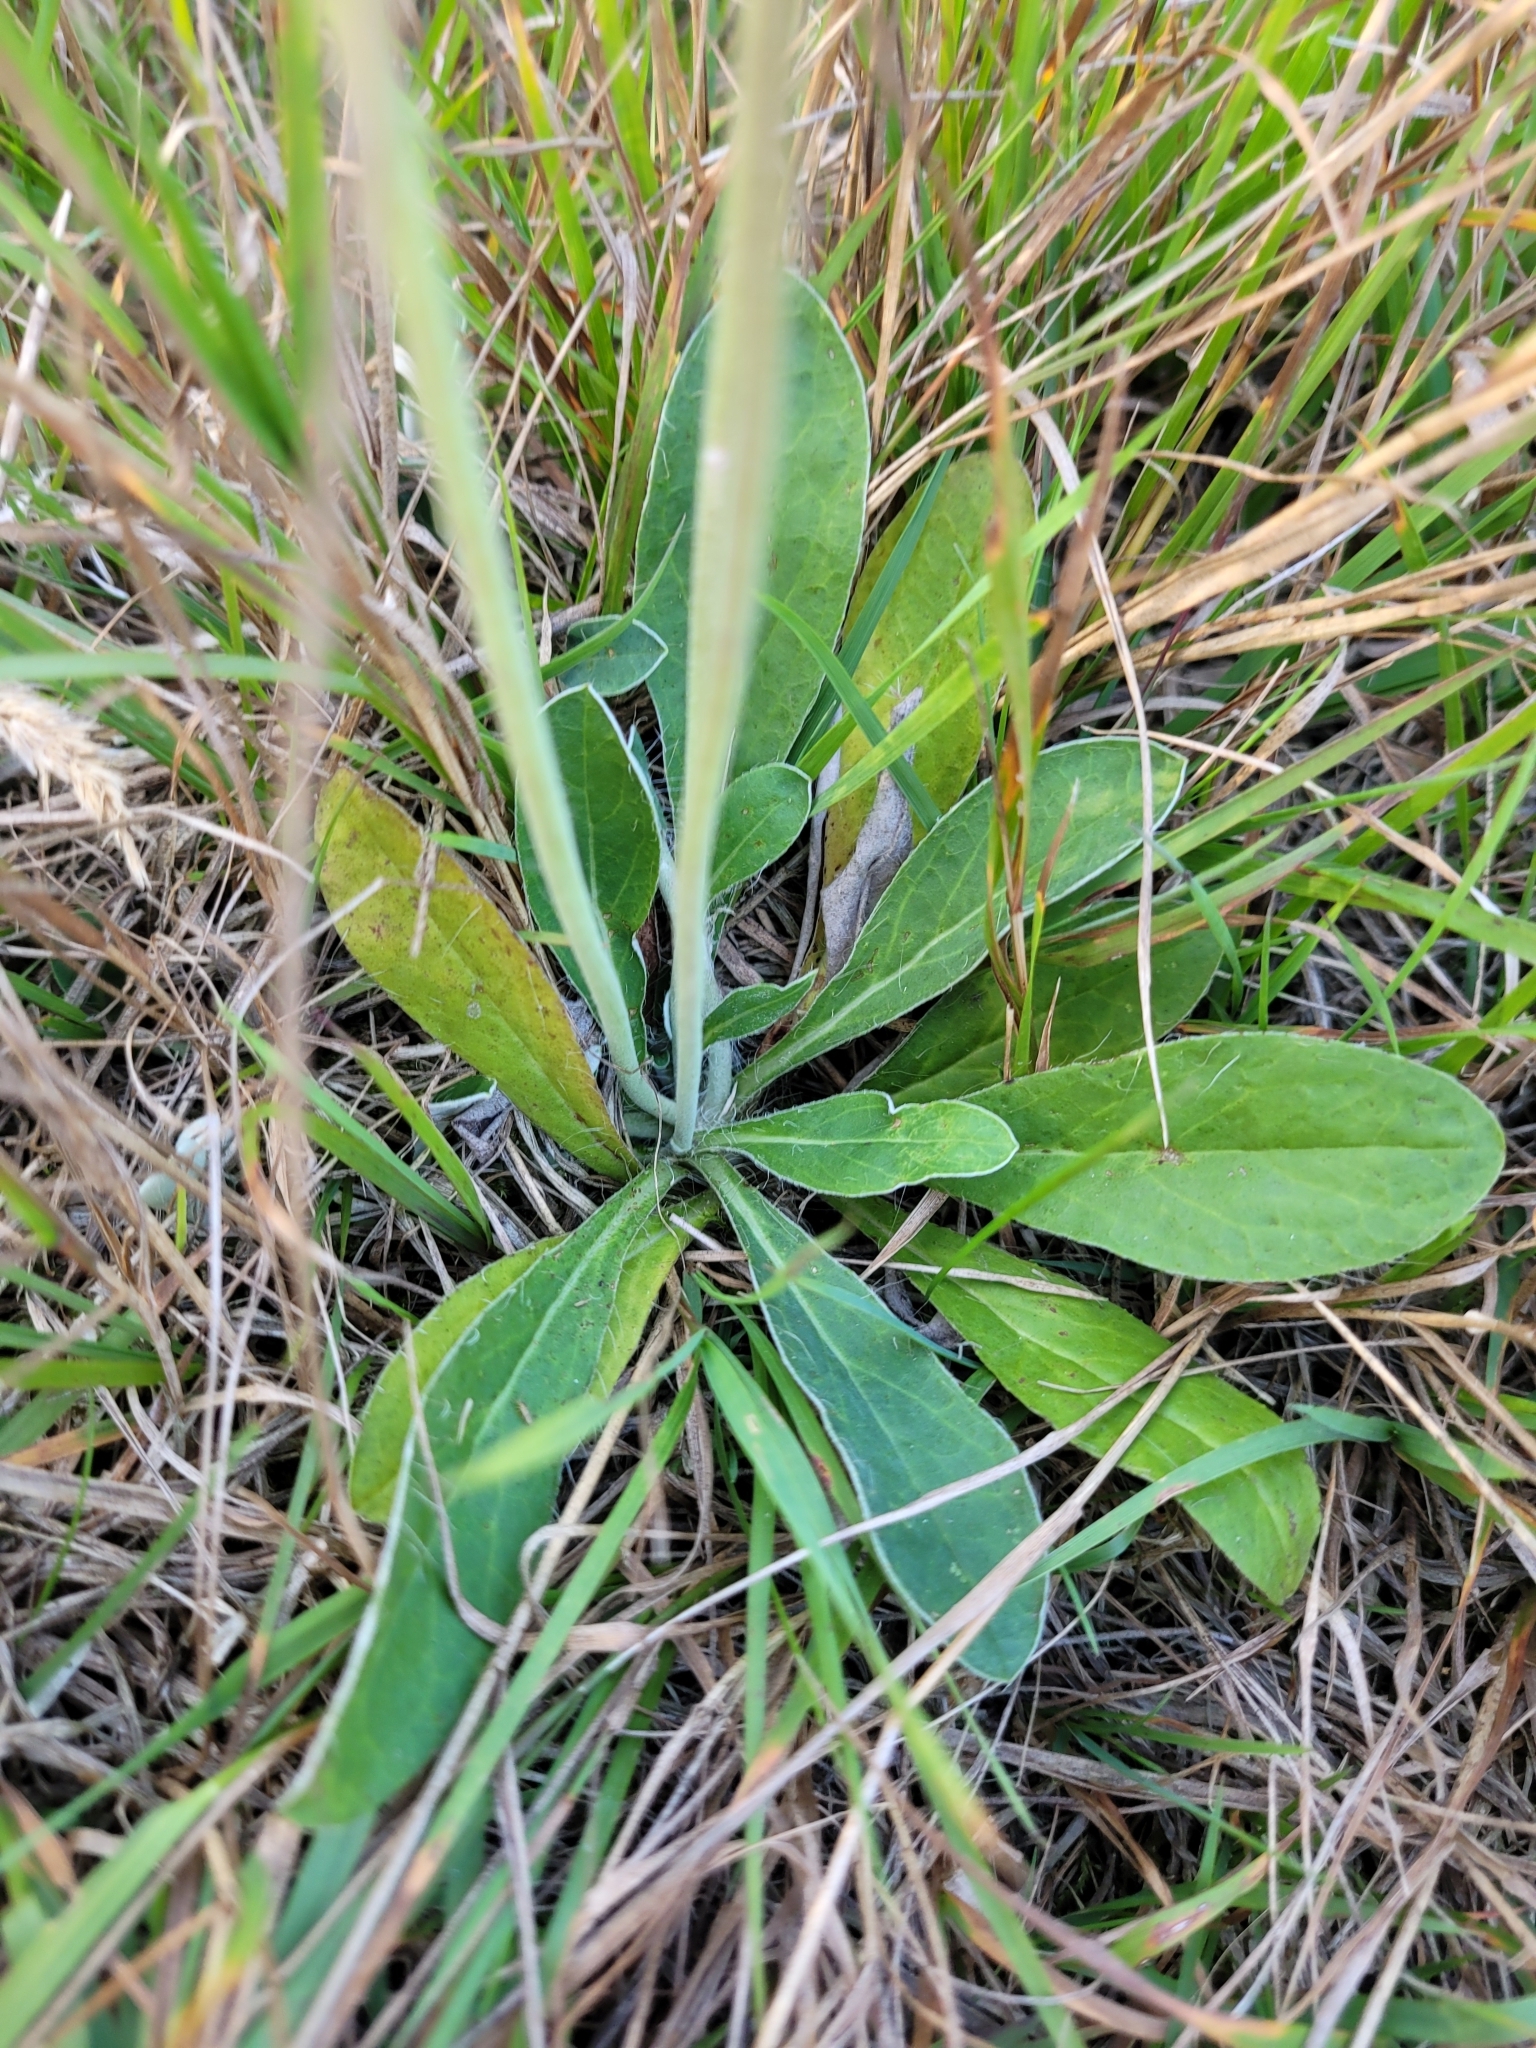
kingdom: Plantae
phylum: Tracheophyta
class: Magnoliopsida
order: Asterales
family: Asteraceae
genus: Pilosella
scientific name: Pilosella officinarum
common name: Mouse-ear hawkweed
